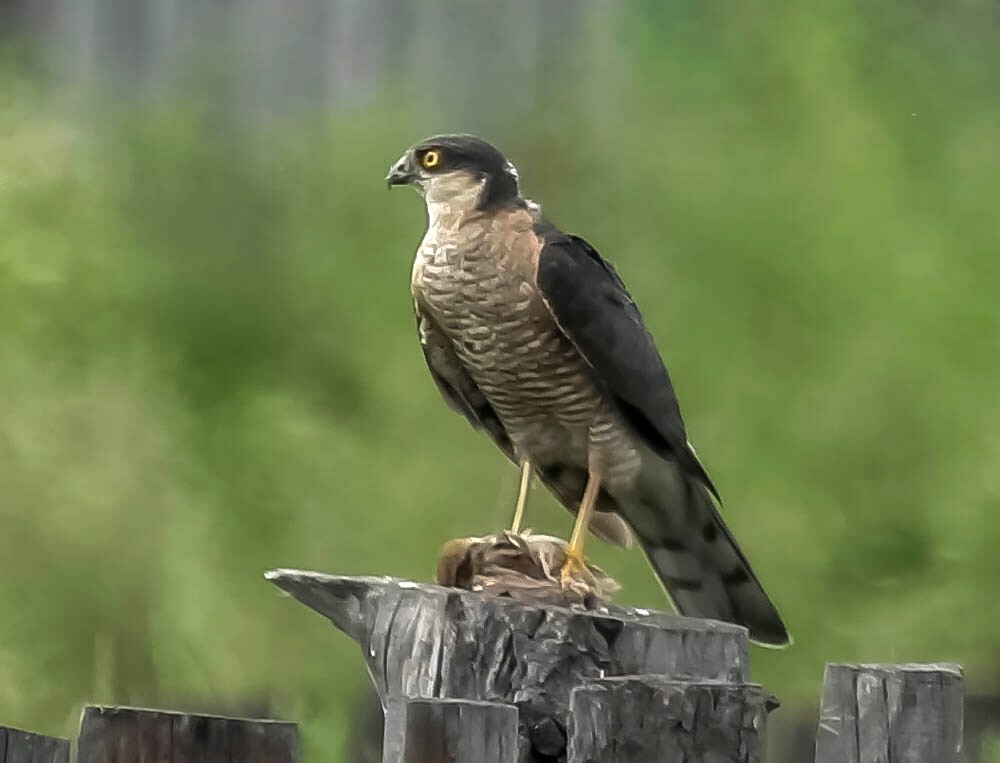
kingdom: Animalia
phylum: Chordata
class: Aves
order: Accipitriformes
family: Accipitridae
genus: Accipiter
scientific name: Accipiter nisus
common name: Eurasian sparrowhawk
